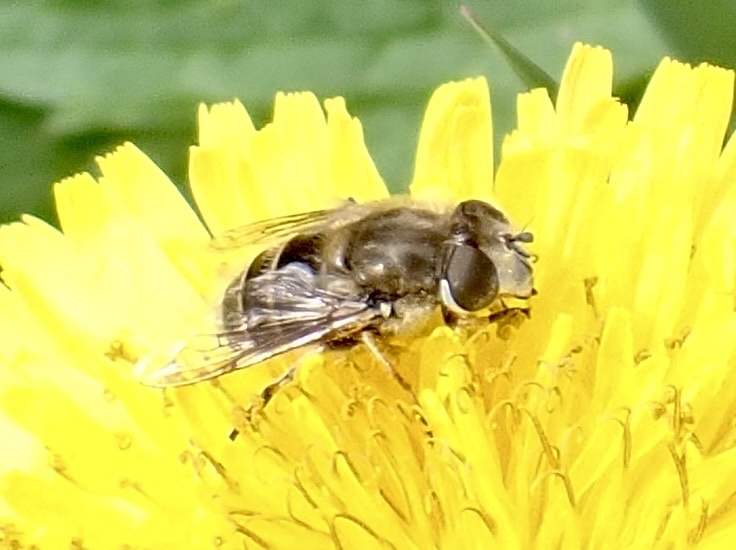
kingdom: Animalia
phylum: Arthropoda
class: Insecta
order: Diptera
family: Syrphidae
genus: Eristalis
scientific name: Eristalis abusivus
